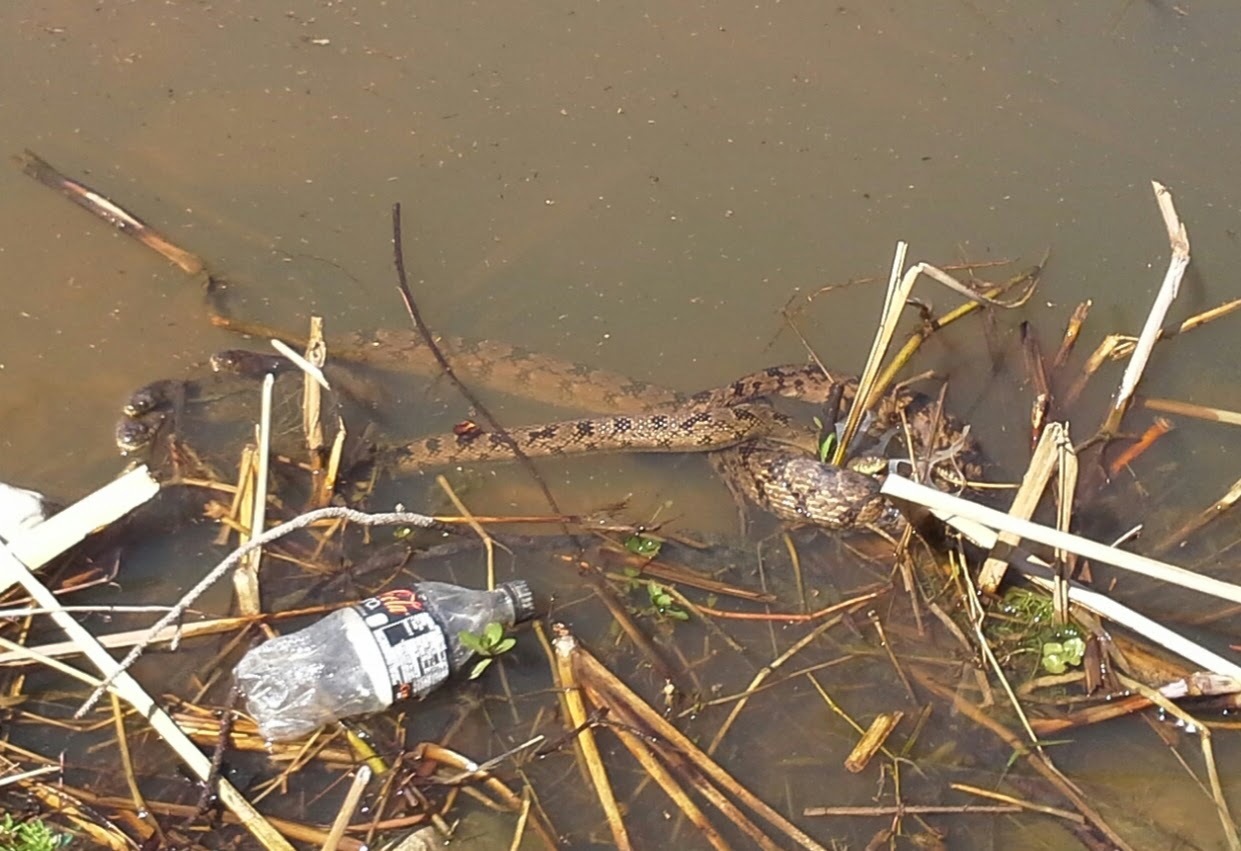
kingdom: Animalia
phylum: Chordata
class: Squamata
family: Colubridae
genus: Nerodia
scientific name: Nerodia rhombifer
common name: Diamondback water snake
